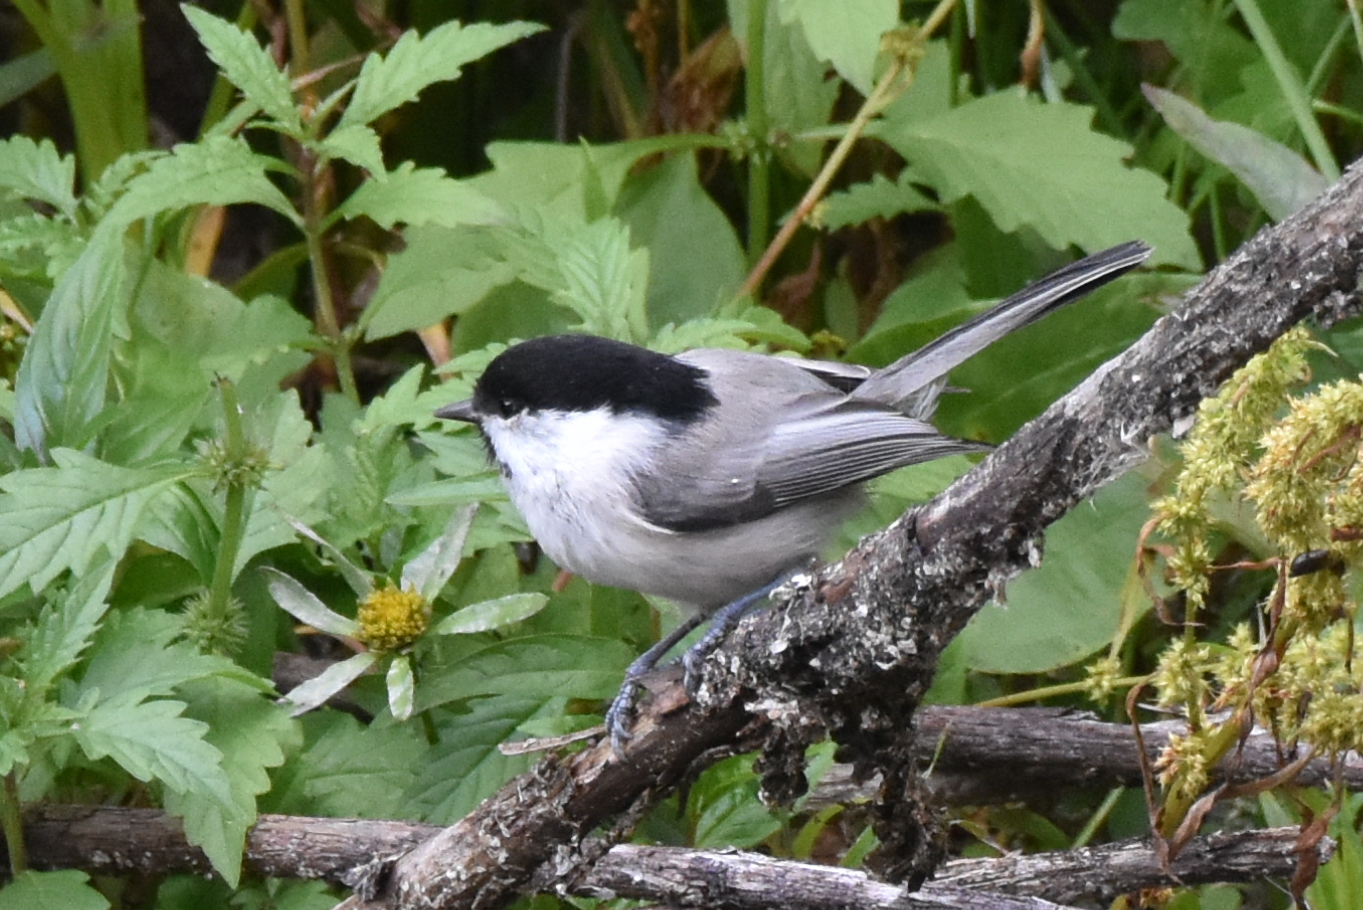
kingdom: Animalia
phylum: Chordata
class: Aves
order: Passeriformes
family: Paridae
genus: Poecile
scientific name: Poecile montanus
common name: Willow tit
